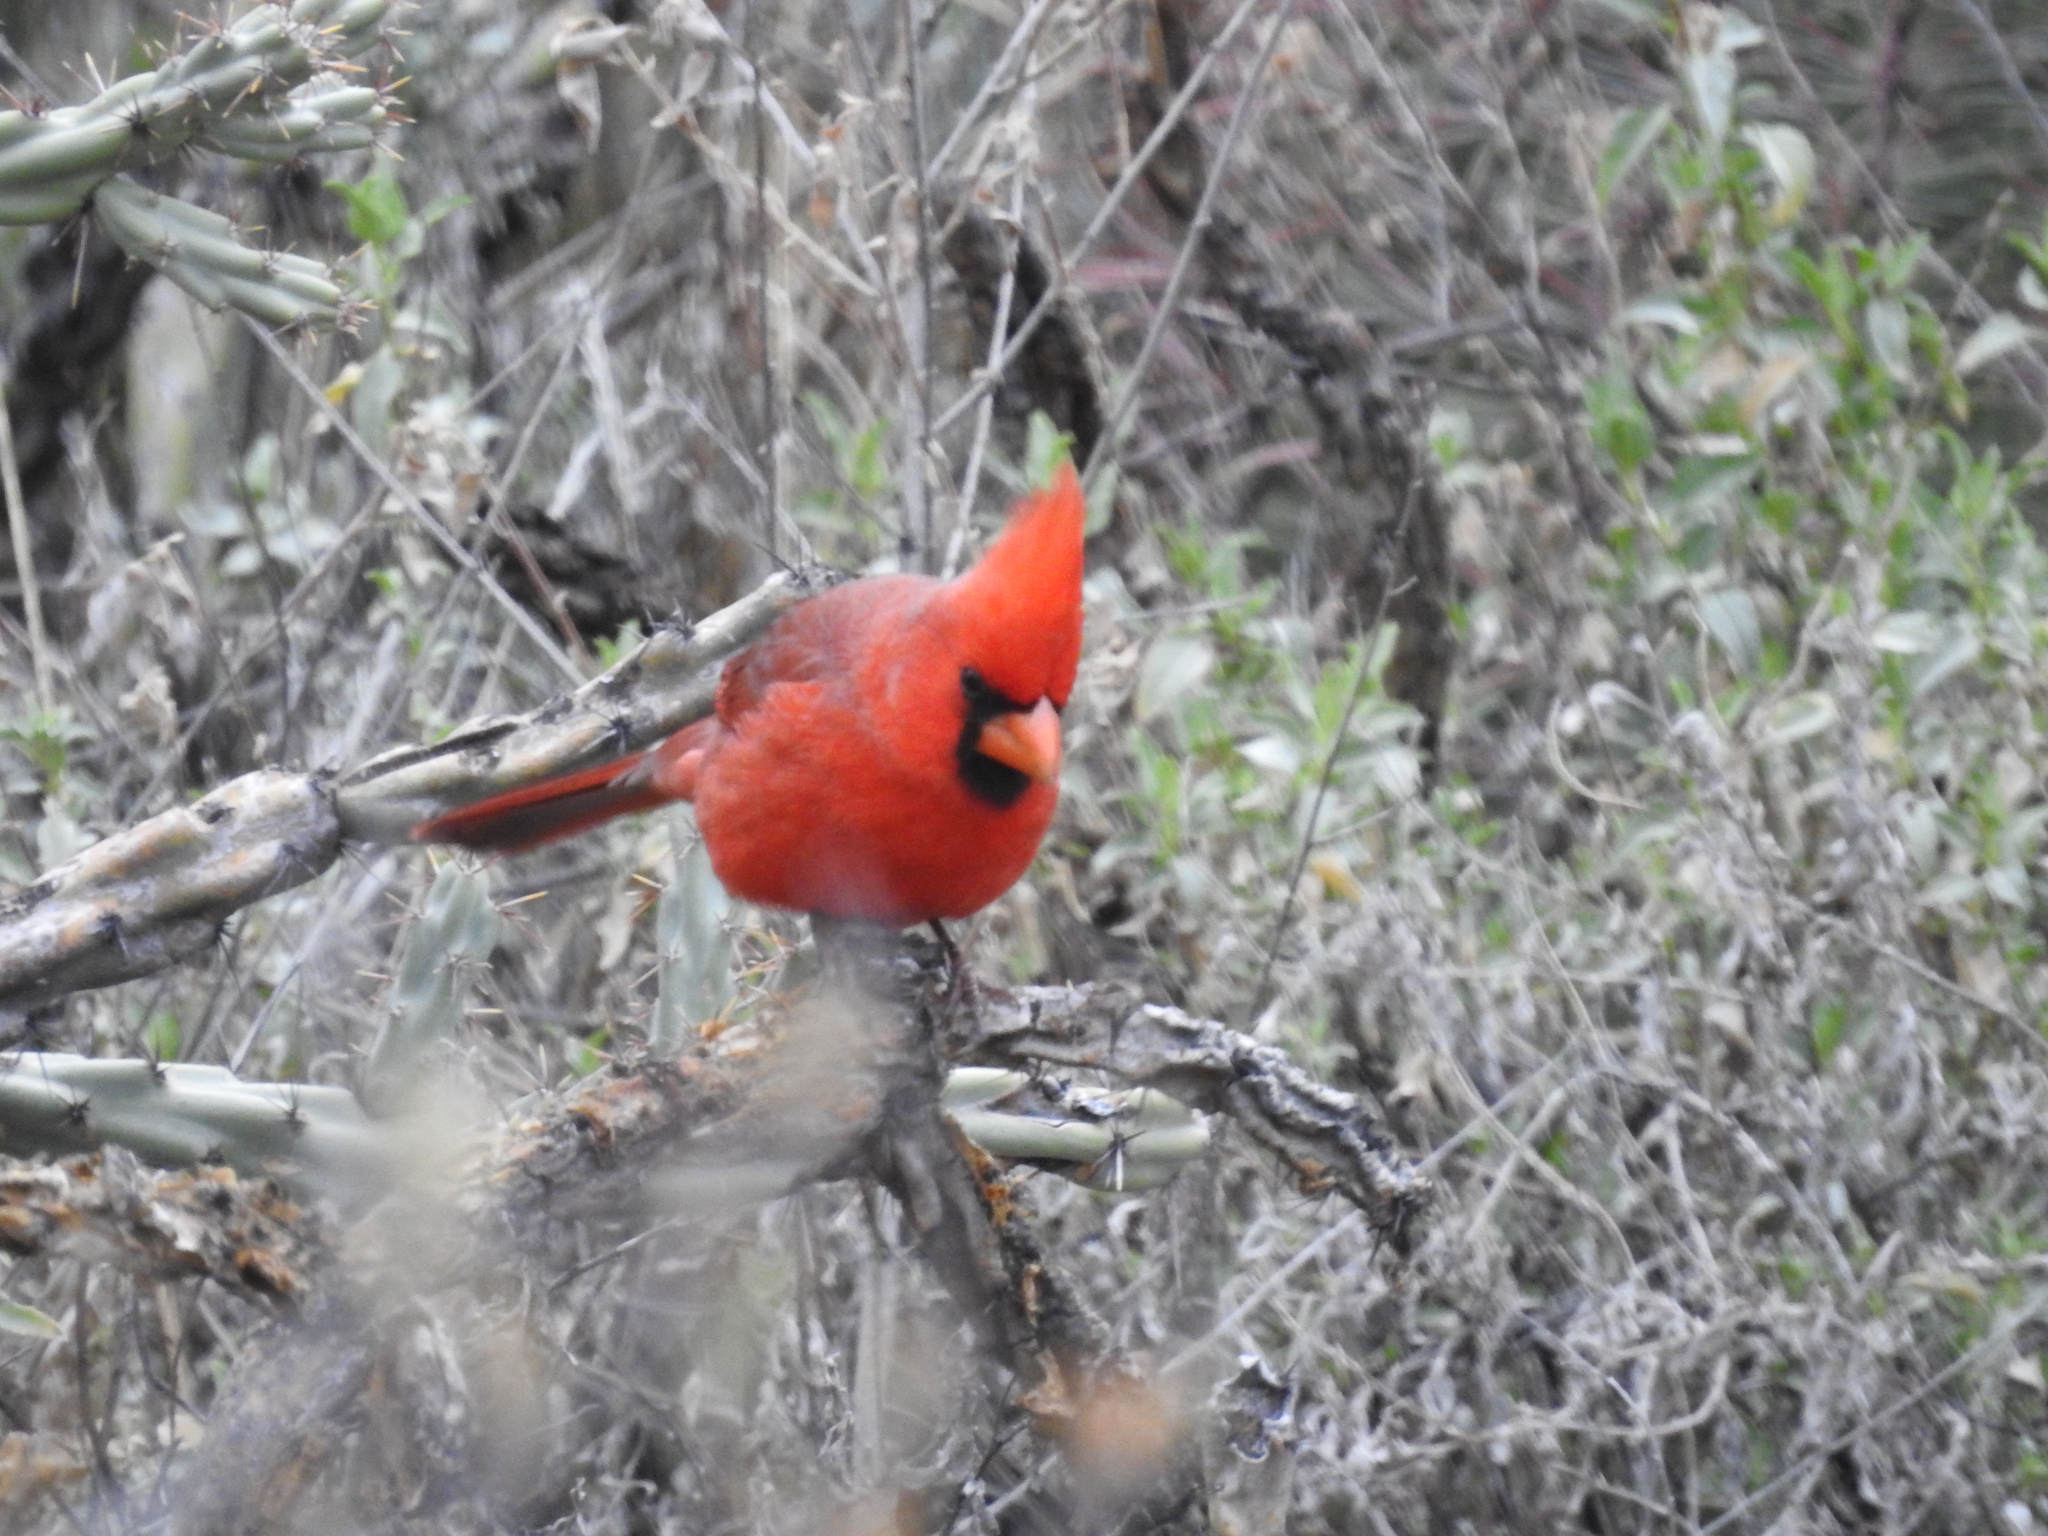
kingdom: Animalia
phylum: Chordata
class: Aves
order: Passeriformes
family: Cardinalidae
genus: Cardinalis
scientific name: Cardinalis cardinalis
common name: Northern cardinal
